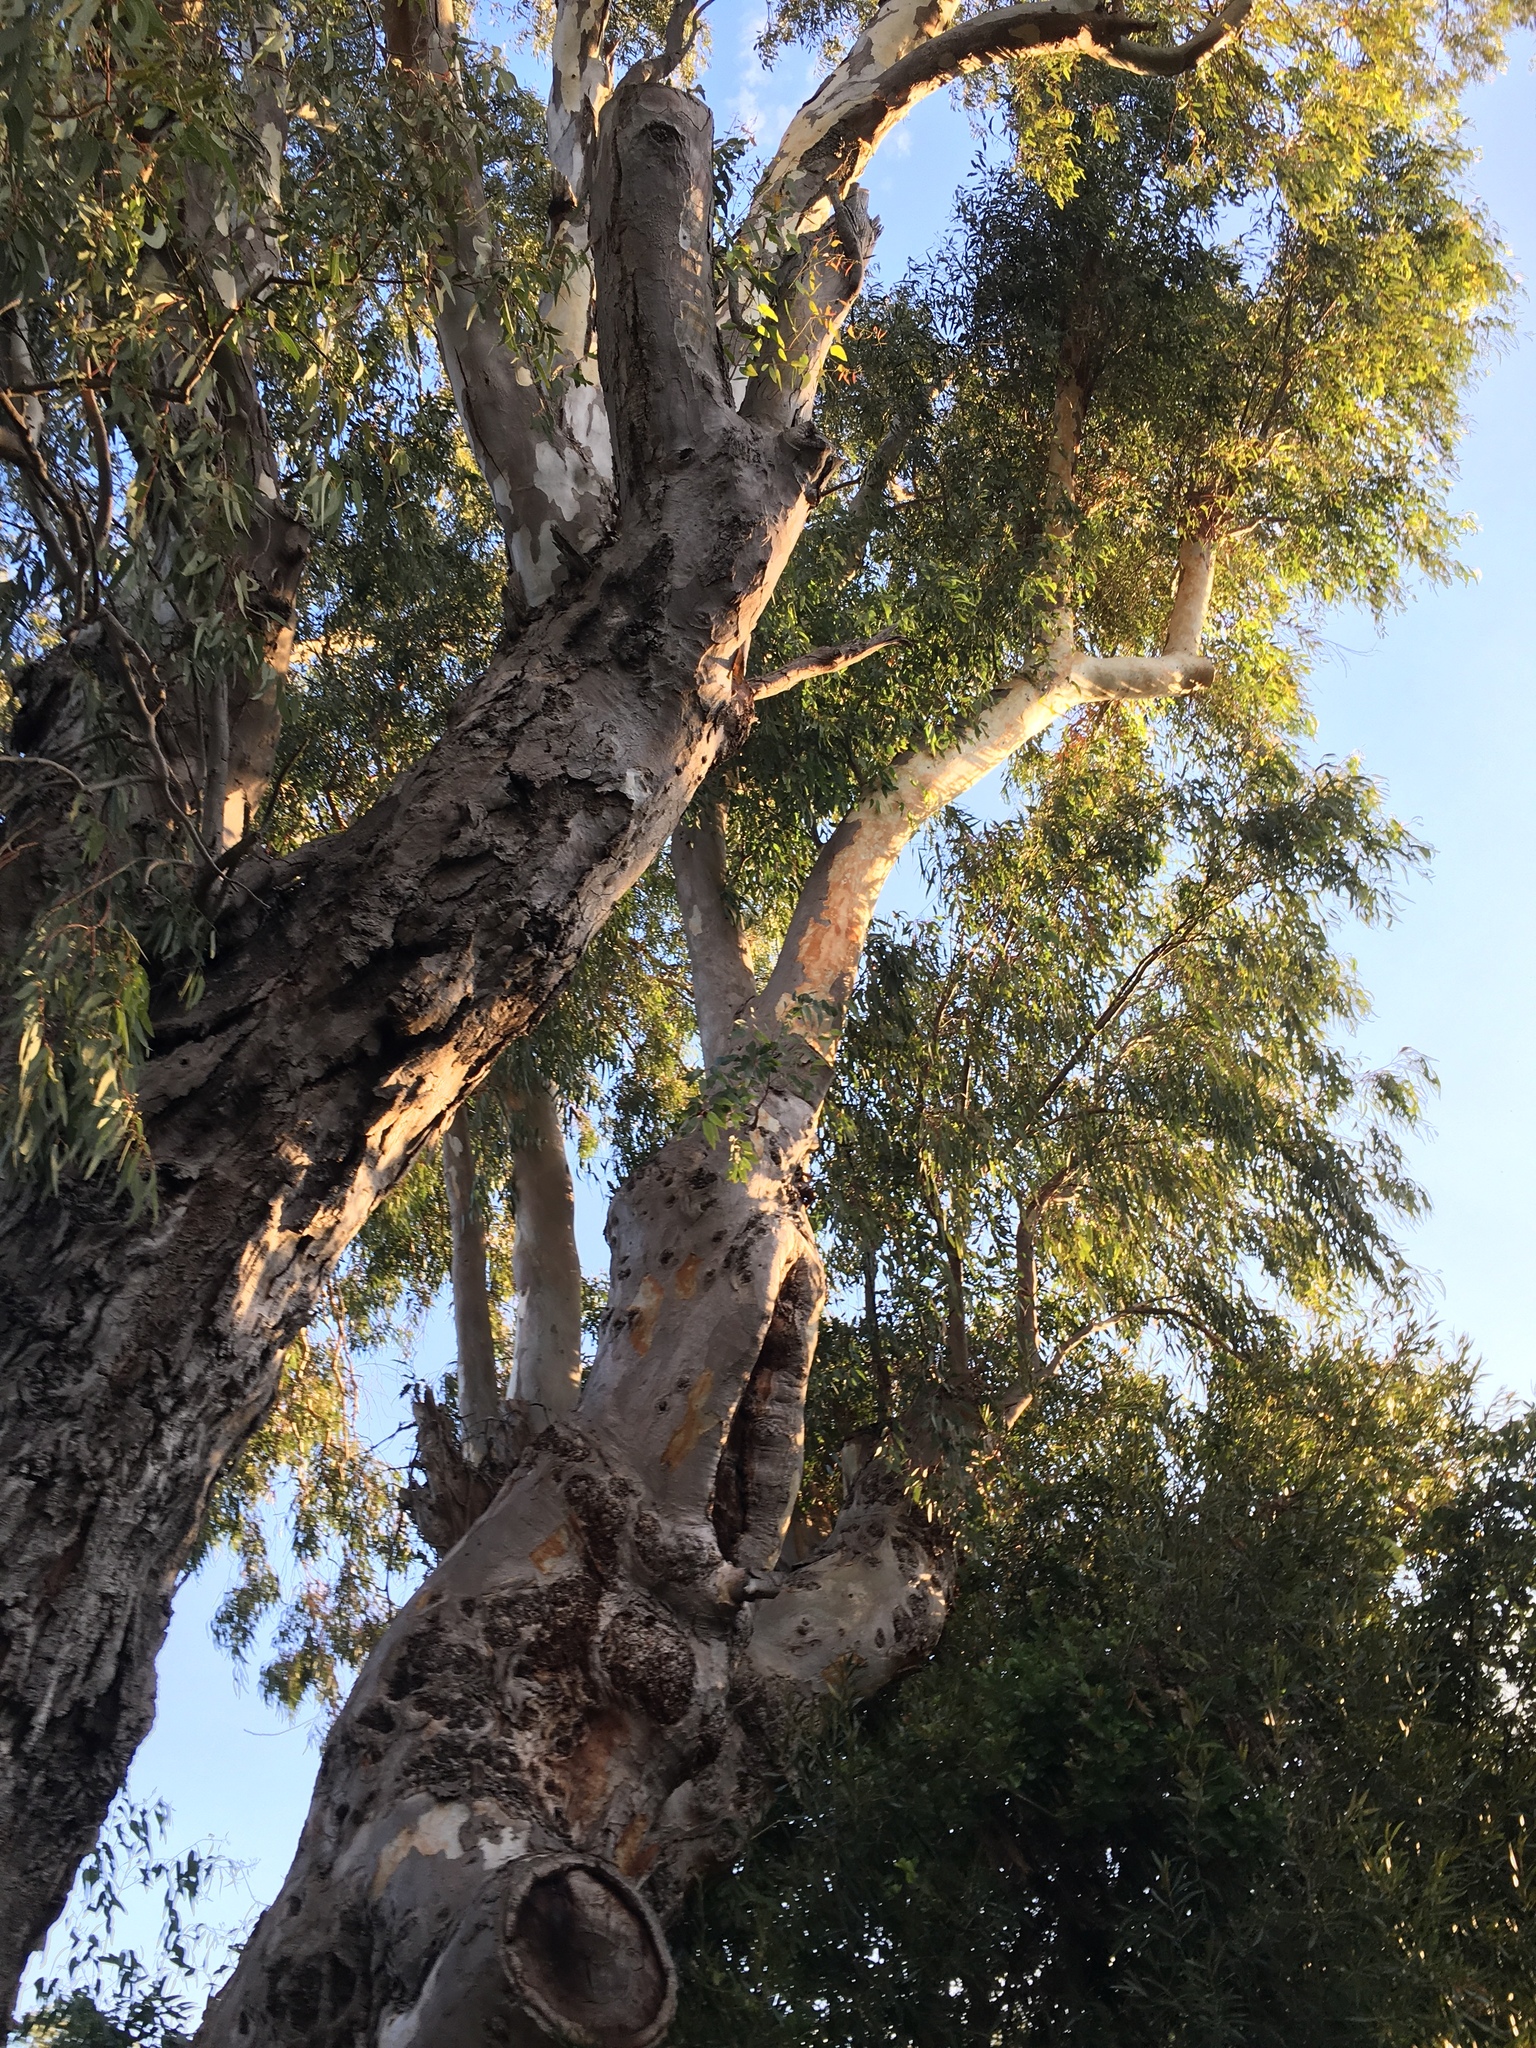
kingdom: Plantae
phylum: Tracheophyta
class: Magnoliopsida
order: Myrtales
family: Myrtaceae
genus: Eucalyptus
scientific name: Eucalyptus camaldulensis
